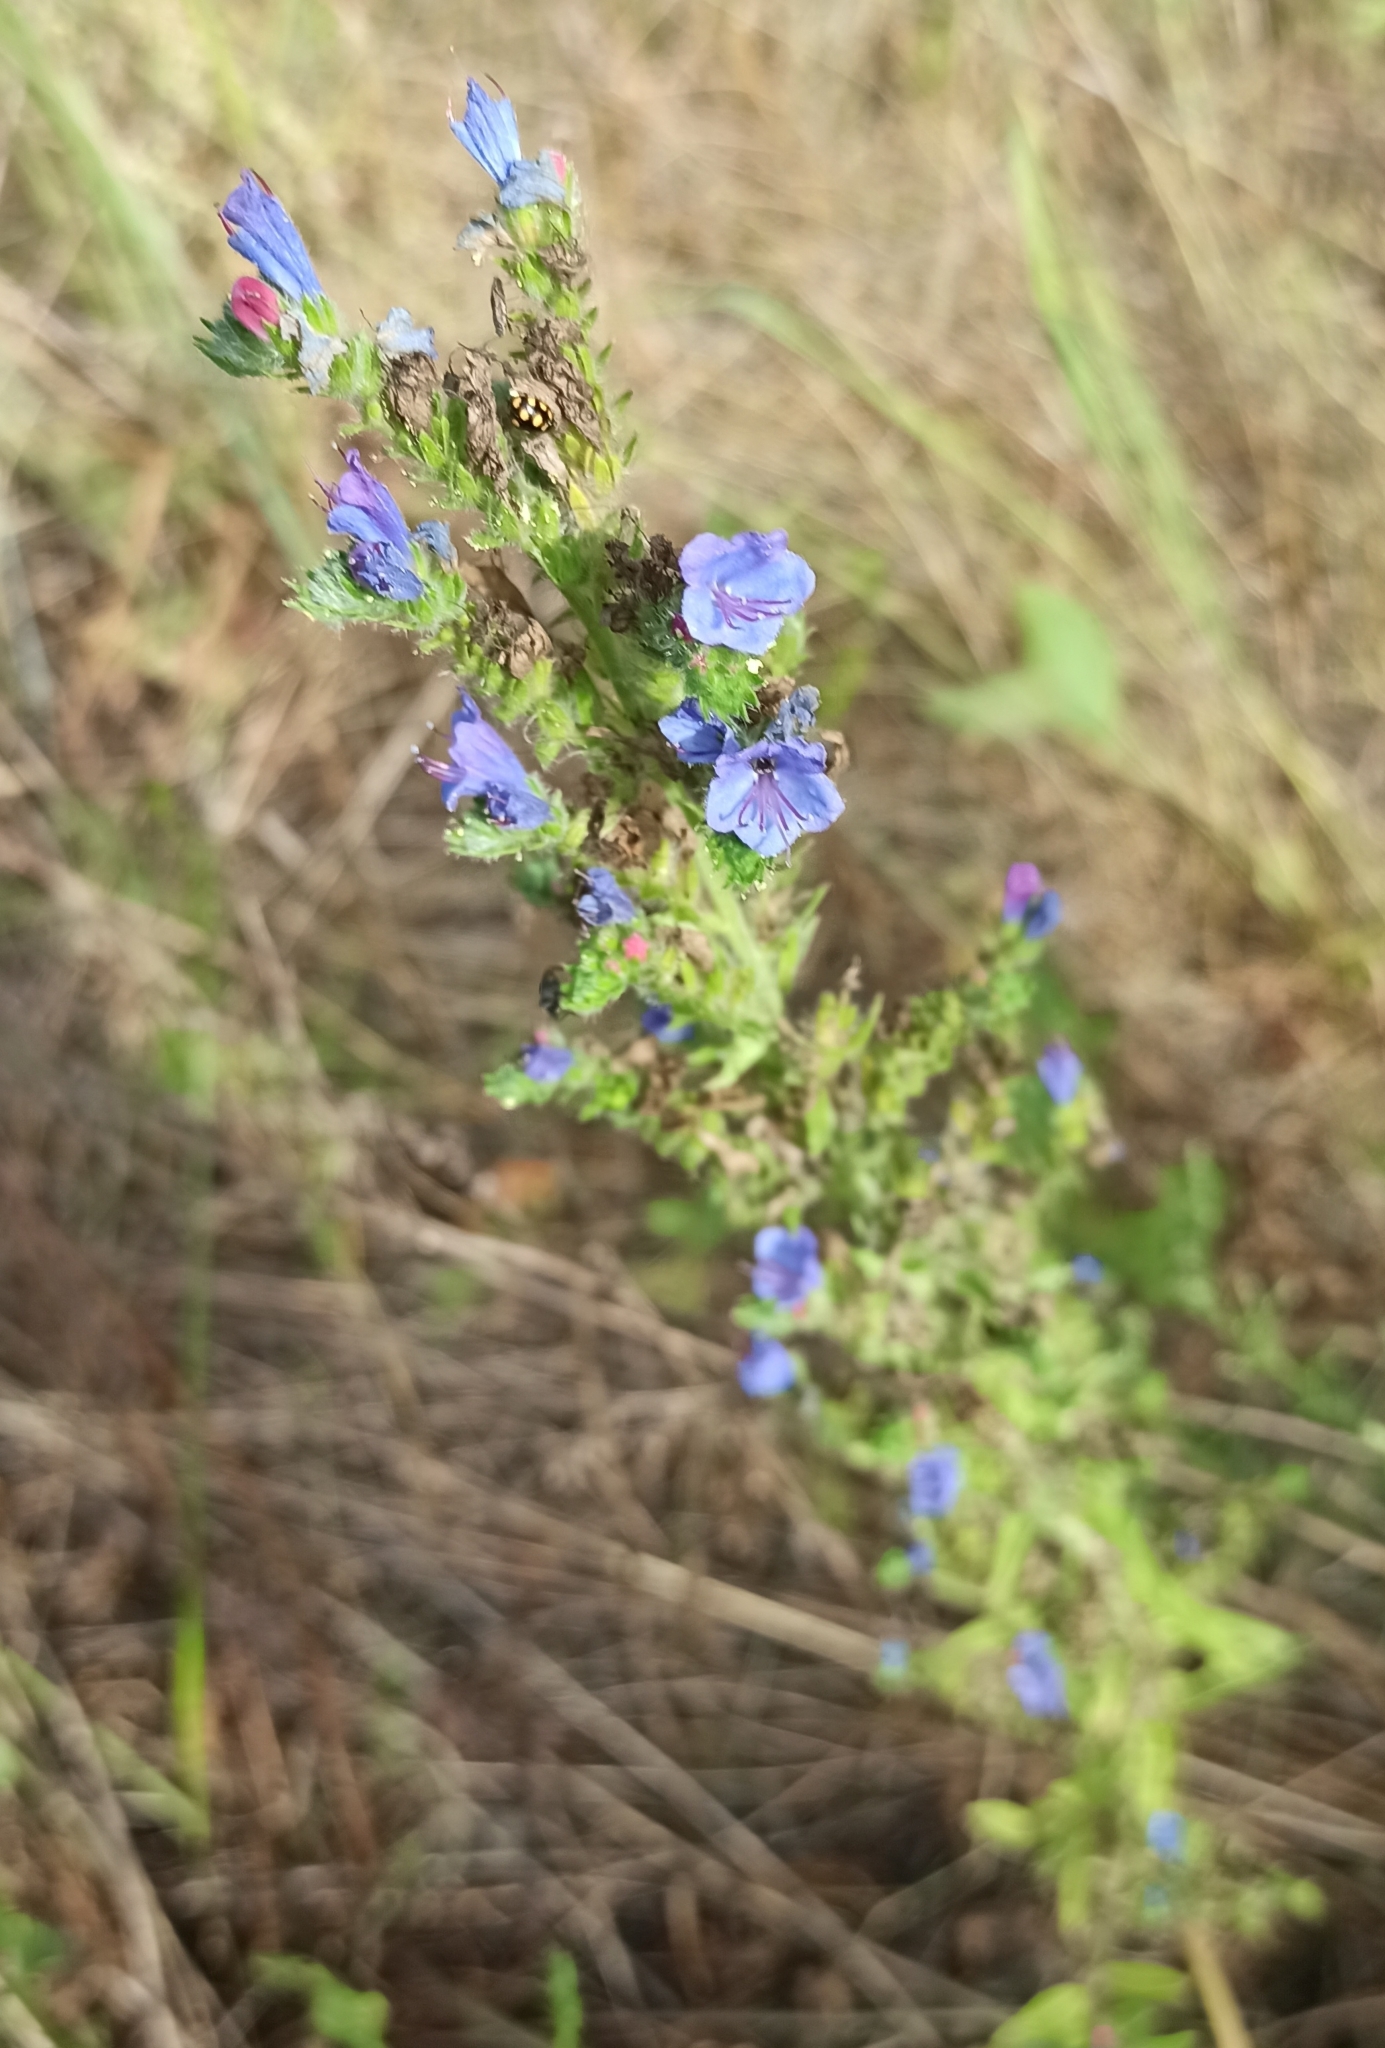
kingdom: Plantae
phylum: Tracheophyta
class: Magnoliopsida
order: Boraginales
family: Boraginaceae
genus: Echium
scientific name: Echium vulgare
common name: Common viper's bugloss
